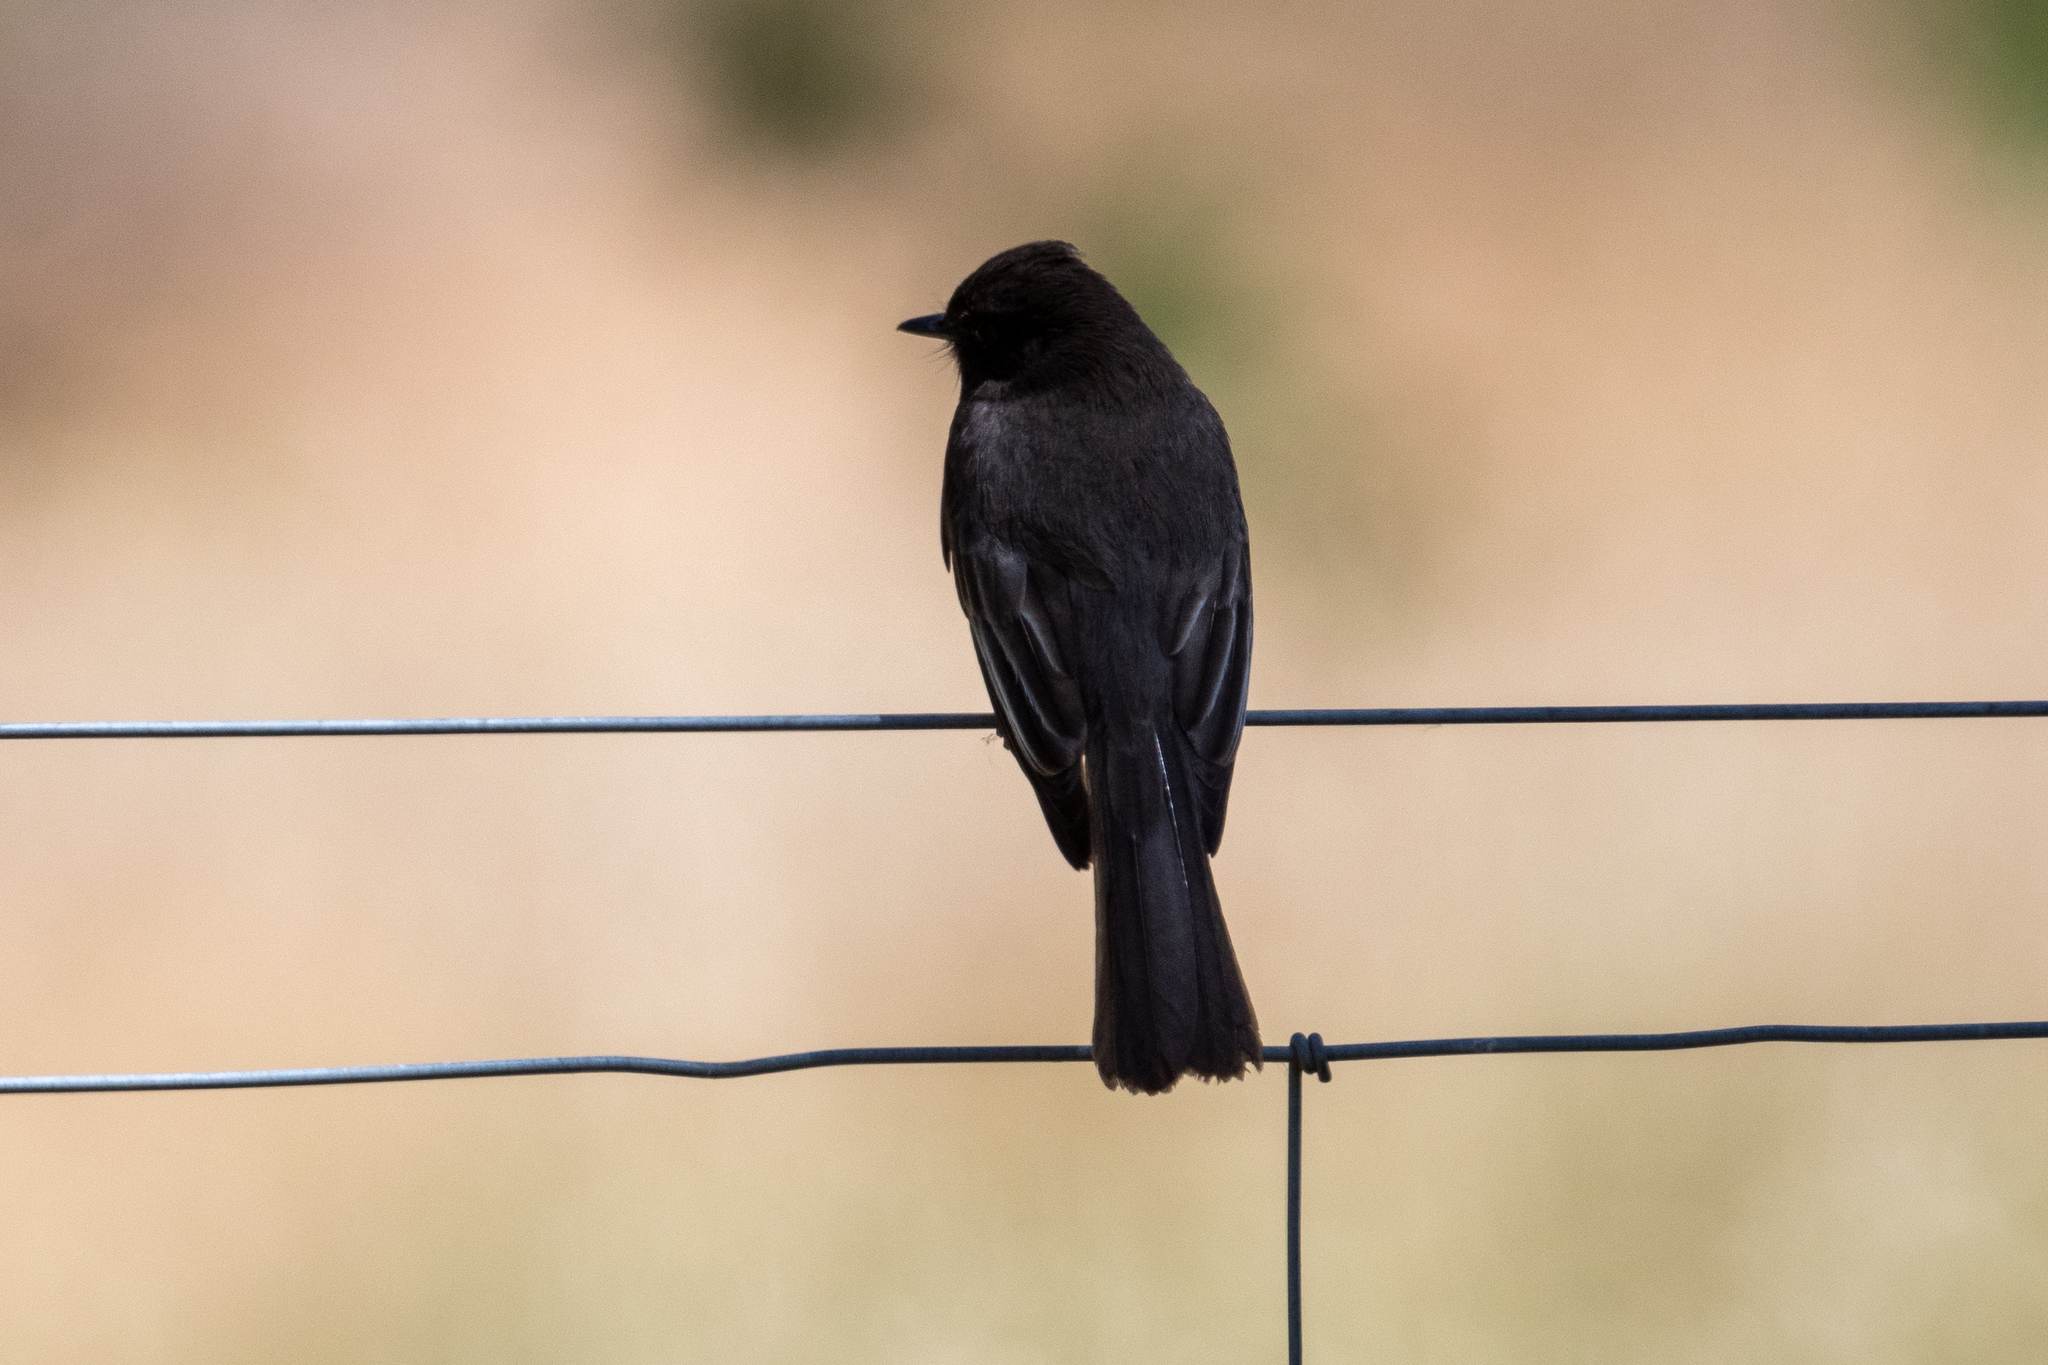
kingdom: Animalia
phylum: Chordata
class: Aves
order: Passeriformes
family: Tyrannidae
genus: Sayornis
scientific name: Sayornis nigricans
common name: Black phoebe
